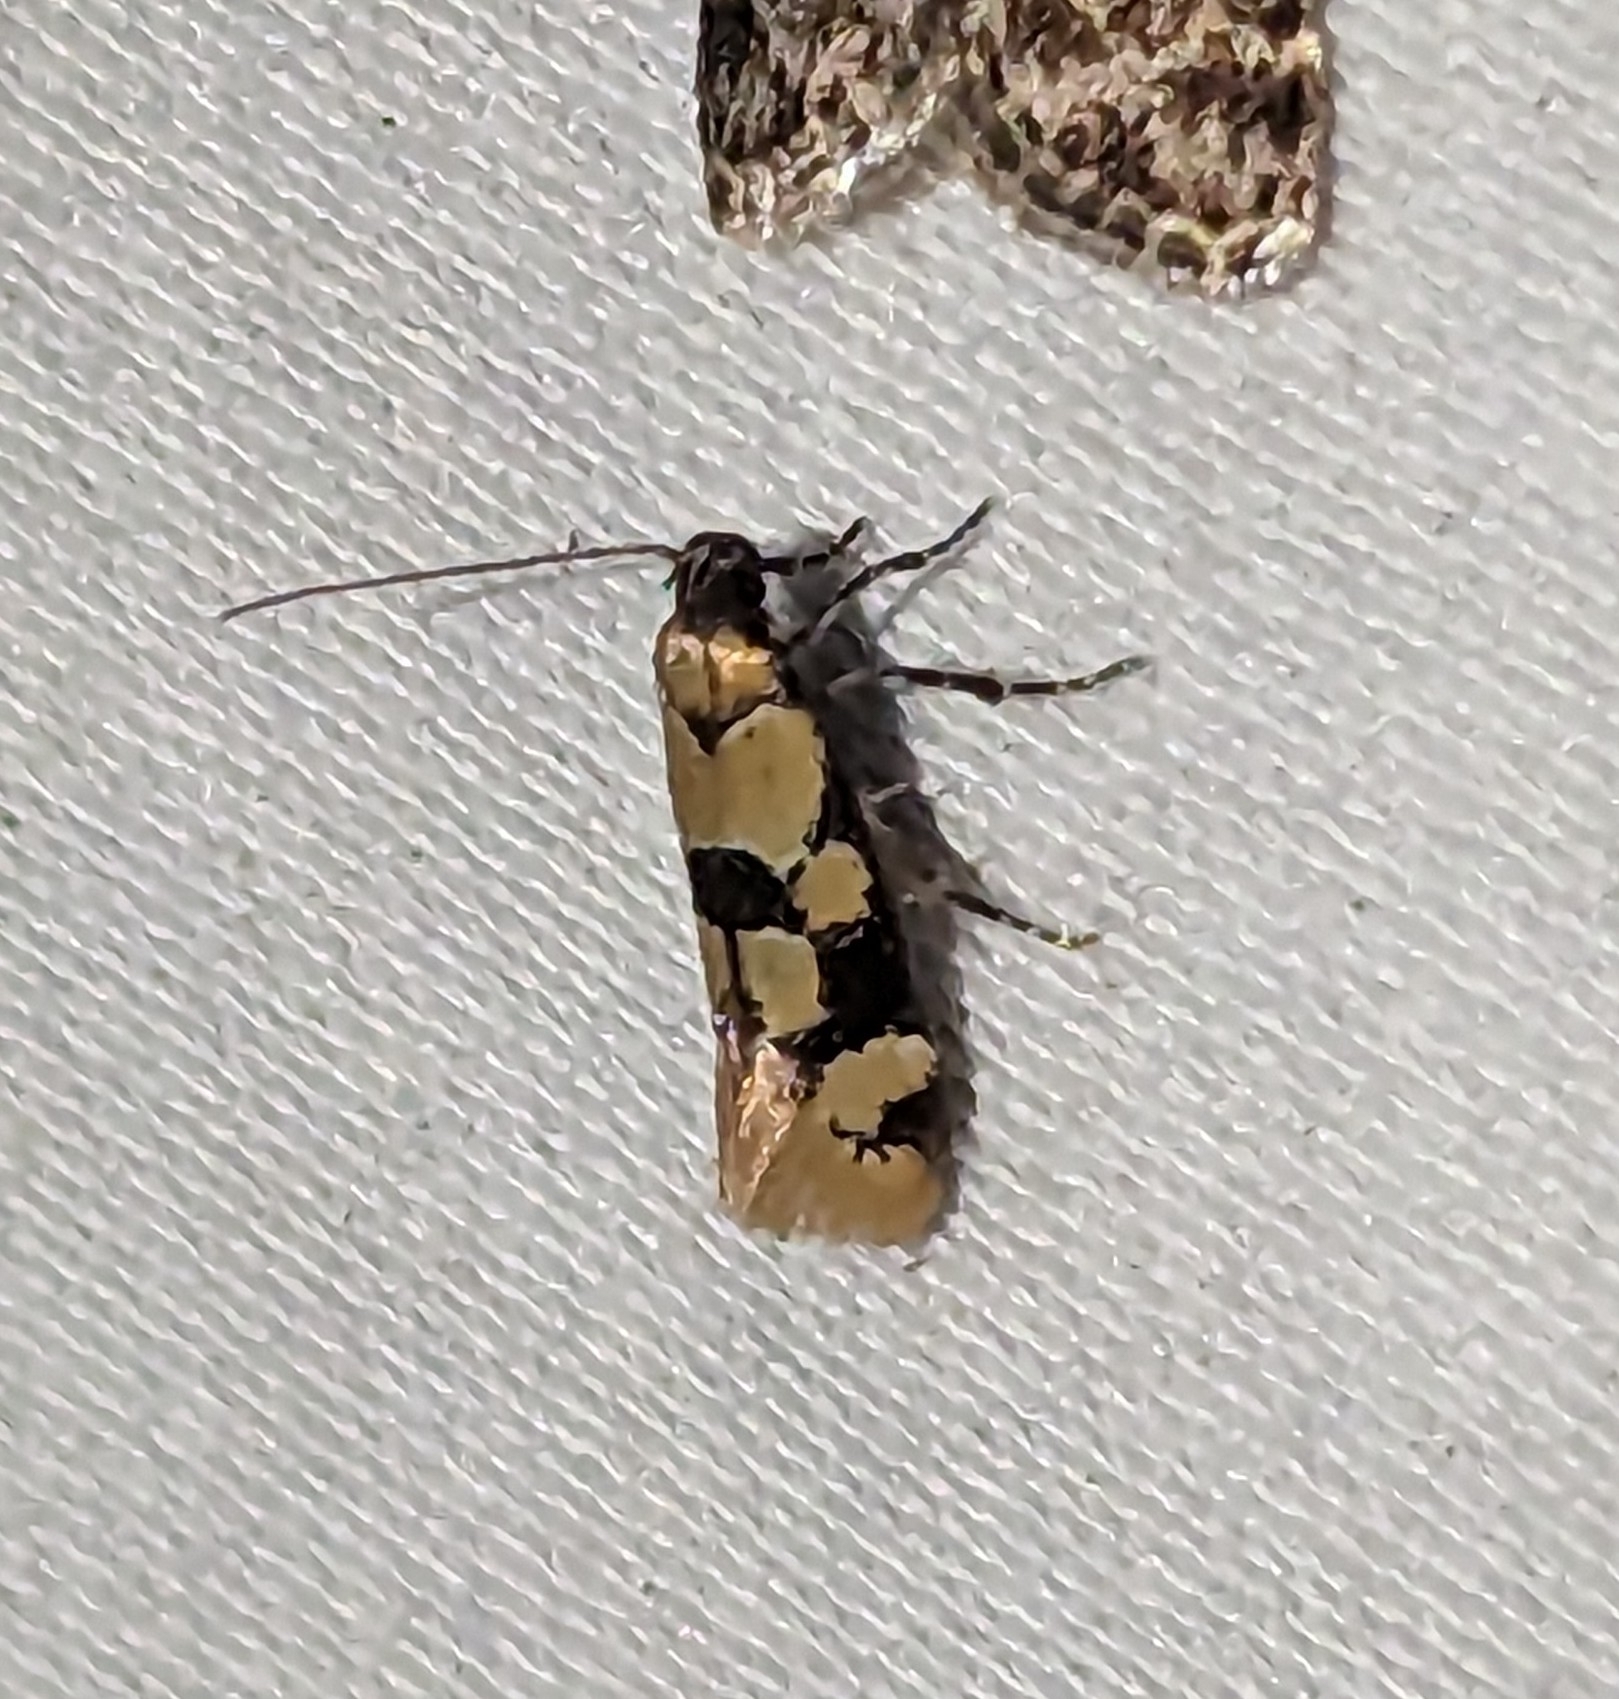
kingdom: Animalia
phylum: Arthropoda
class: Insecta
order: Lepidoptera
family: Oecophoridae
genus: Decantha
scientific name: Decantha stonda
